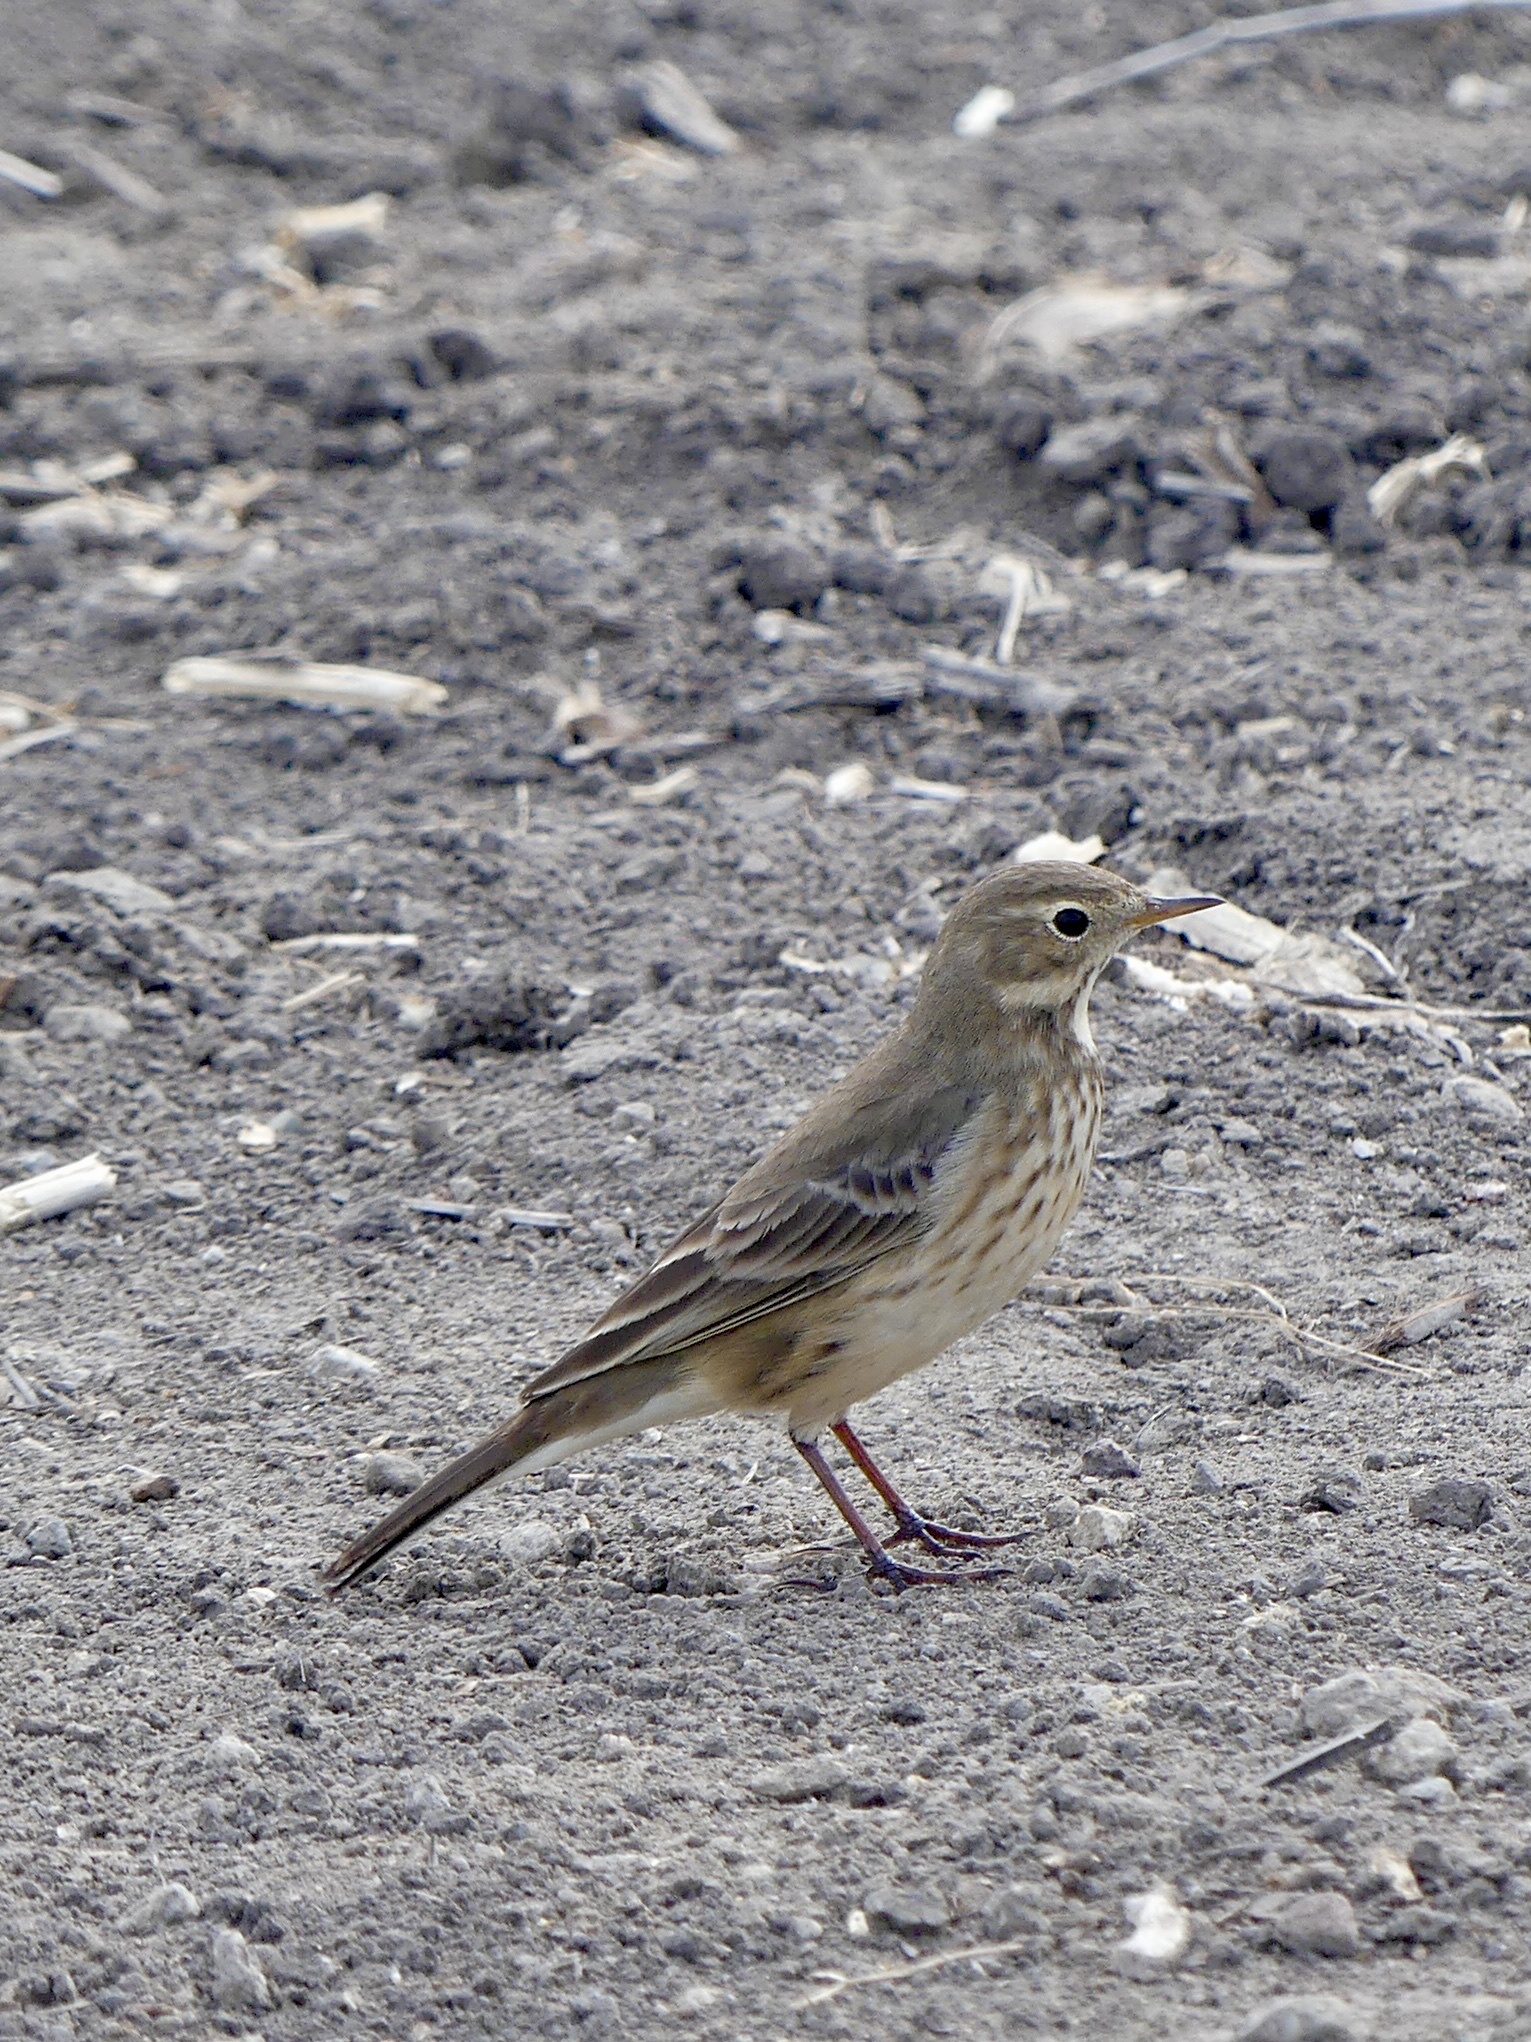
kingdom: Animalia
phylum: Chordata
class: Aves
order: Passeriformes
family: Motacillidae
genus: Anthus
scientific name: Anthus rubescens
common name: Buff-bellied pipit
